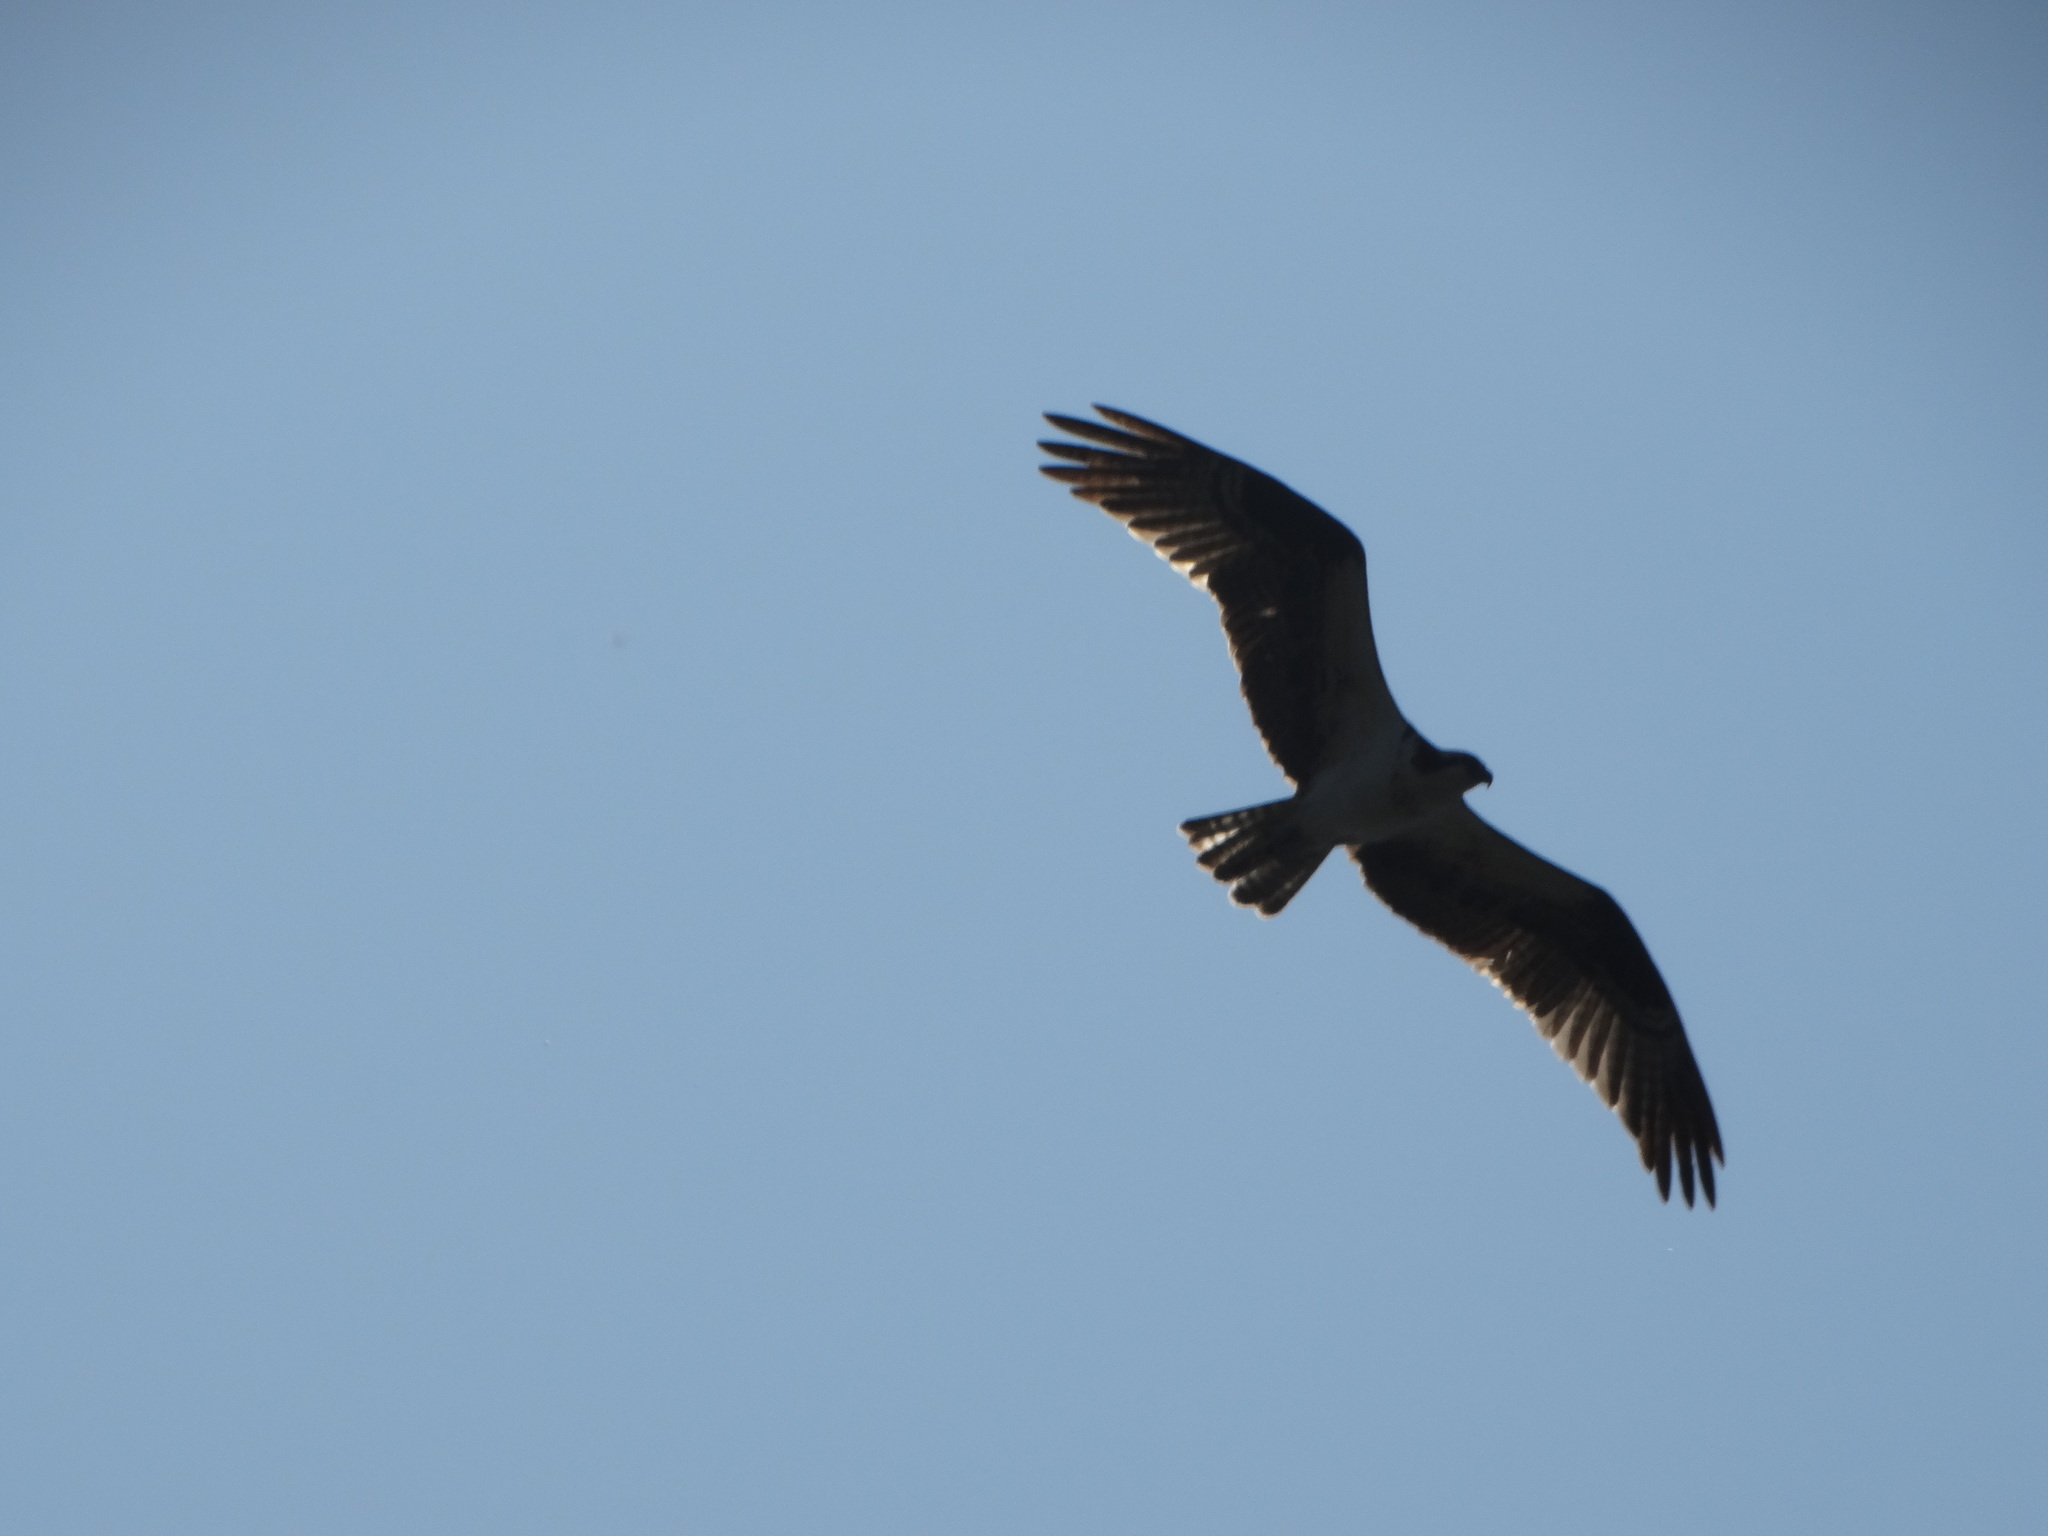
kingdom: Animalia
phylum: Chordata
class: Aves
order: Accipitriformes
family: Pandionidae
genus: Pandion
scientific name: Pandion haliaetus
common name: Osprey
